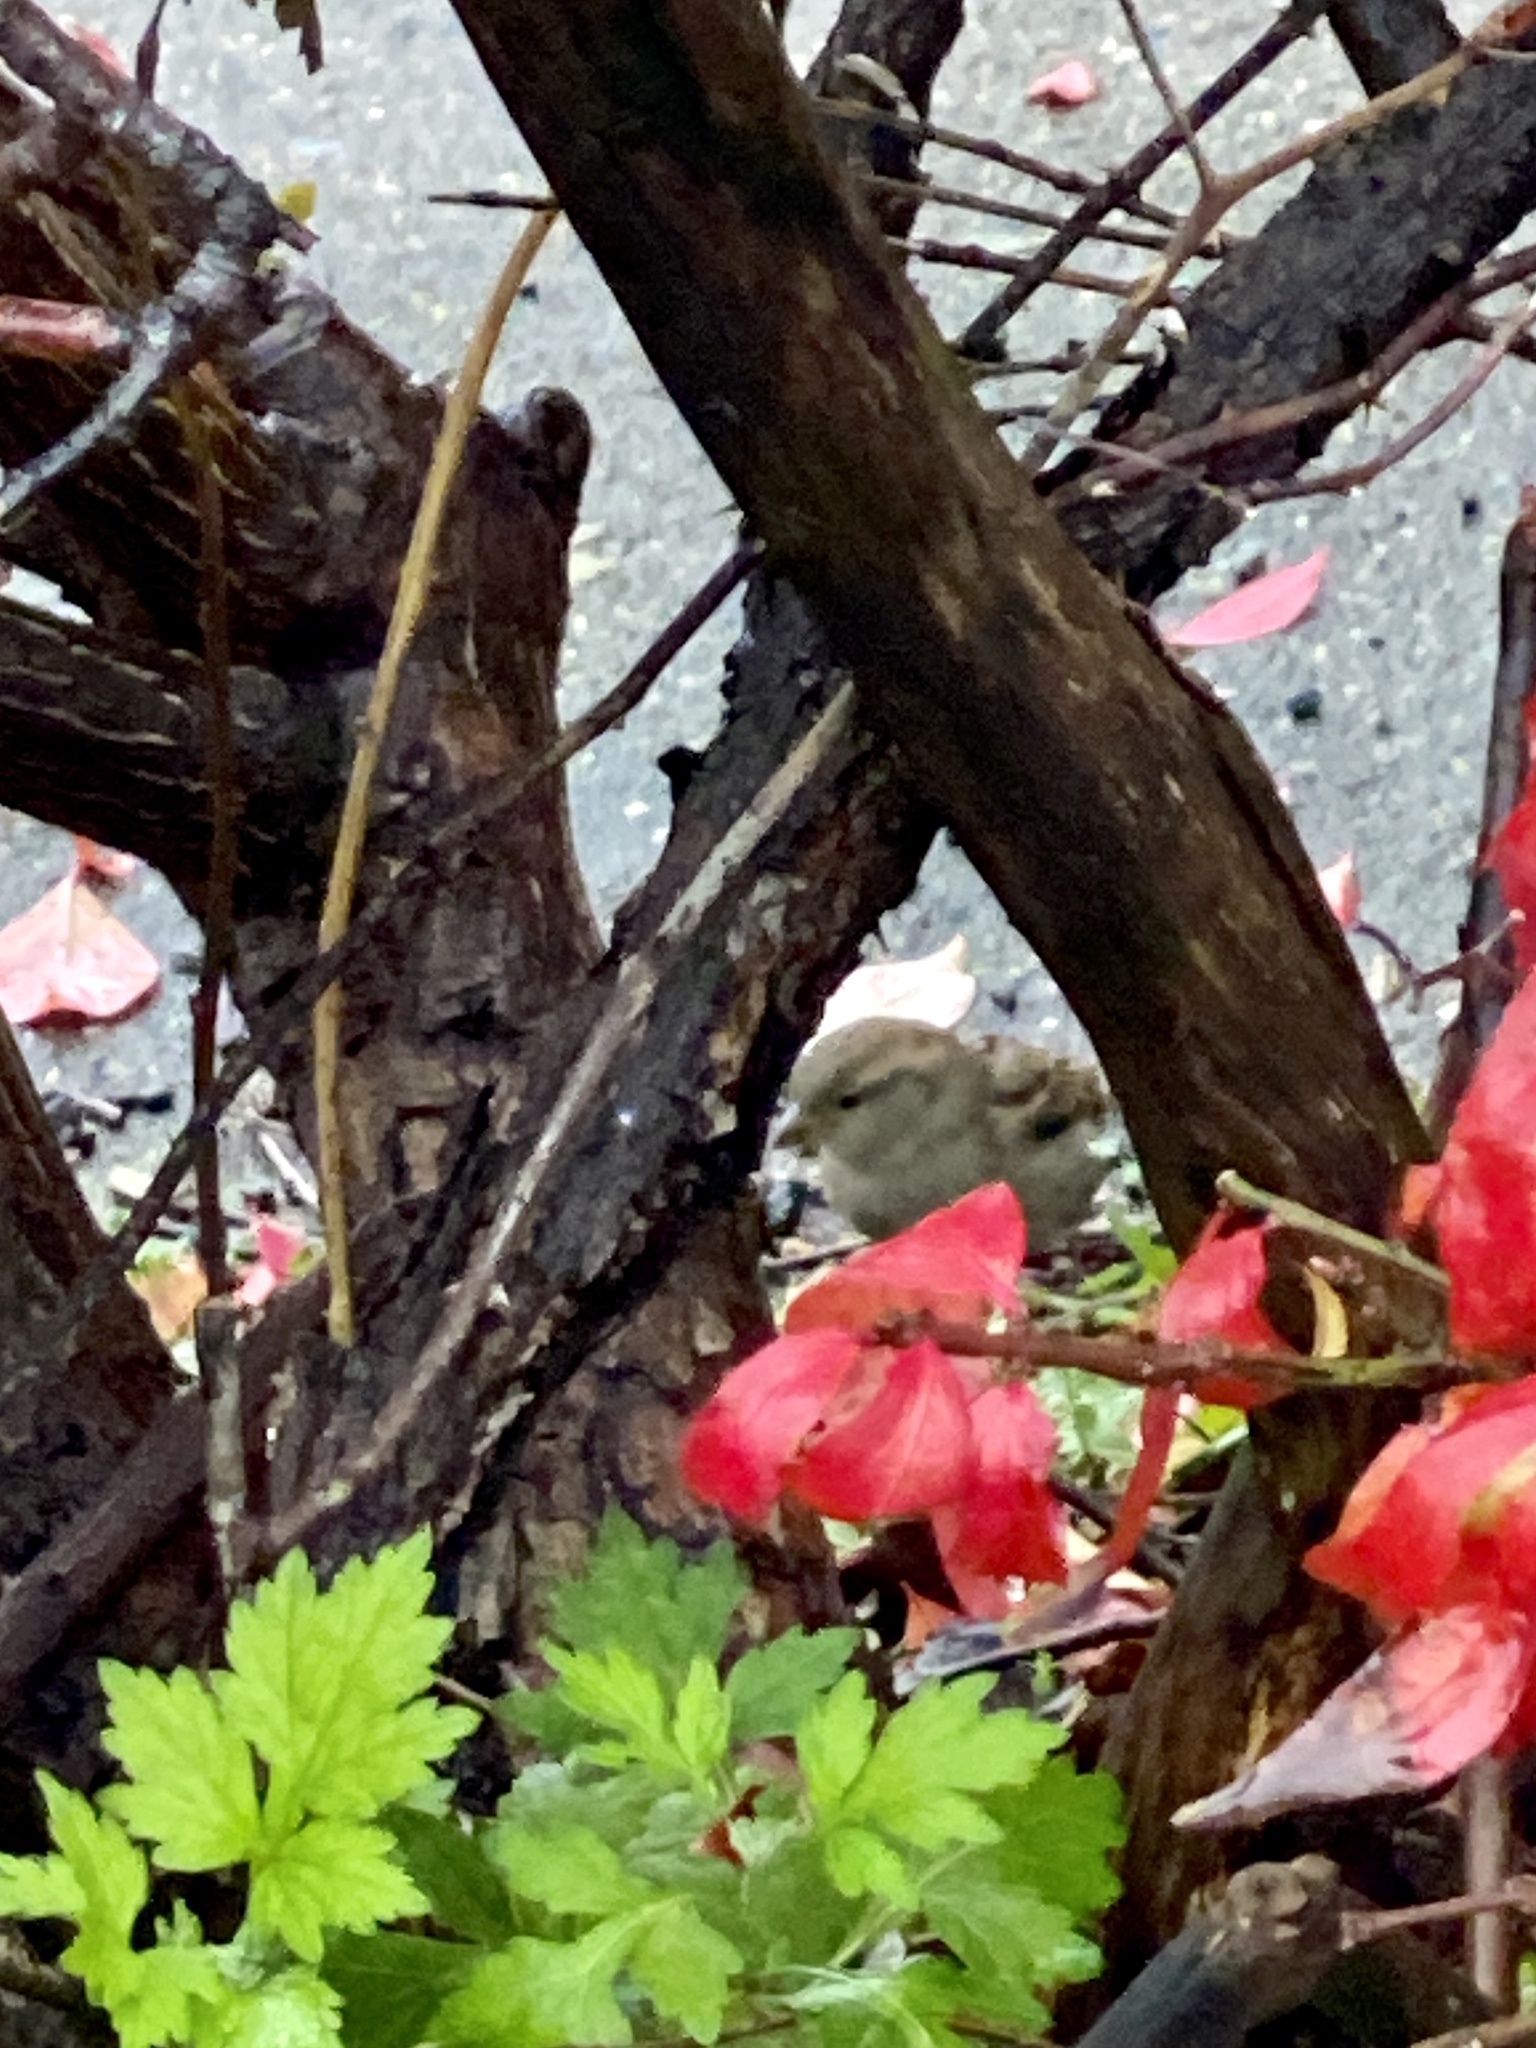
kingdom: Animalia
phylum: Chordata
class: Aves
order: Passeriformes
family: Passeridae
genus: Passer
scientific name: Passer domesticus
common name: House sparrow
